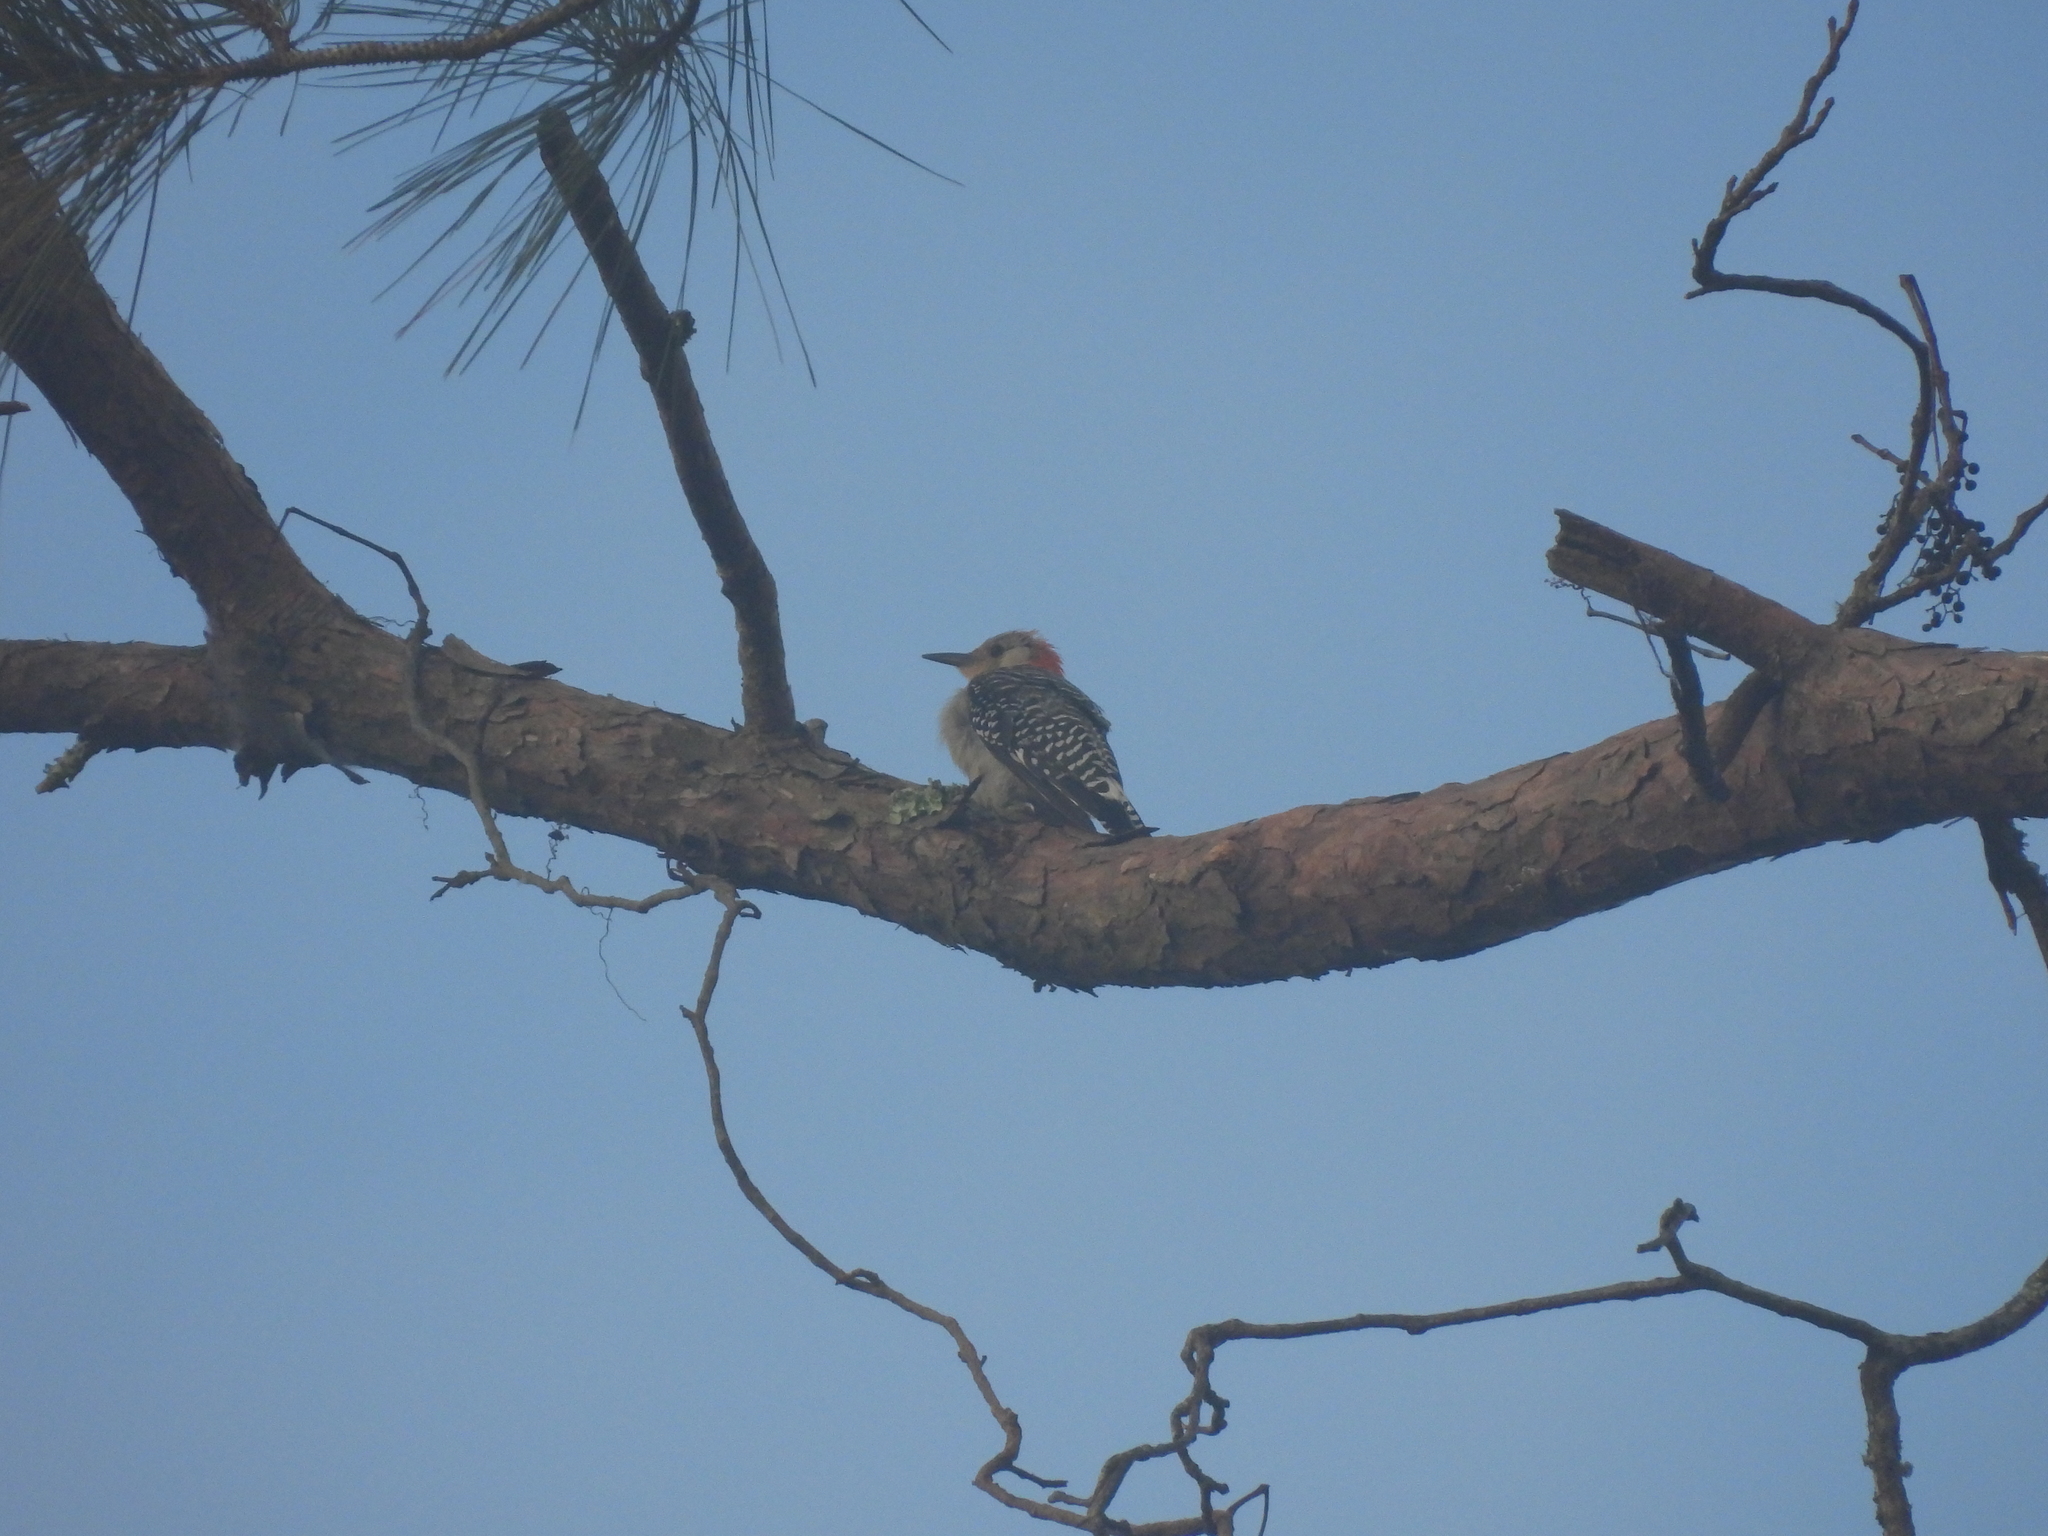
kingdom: Animalia
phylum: Chordata
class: Aves
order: Piciformes
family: Picidae
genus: Melanerpes
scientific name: Melanerpes carolinus
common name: Red-bellied woodpecker
